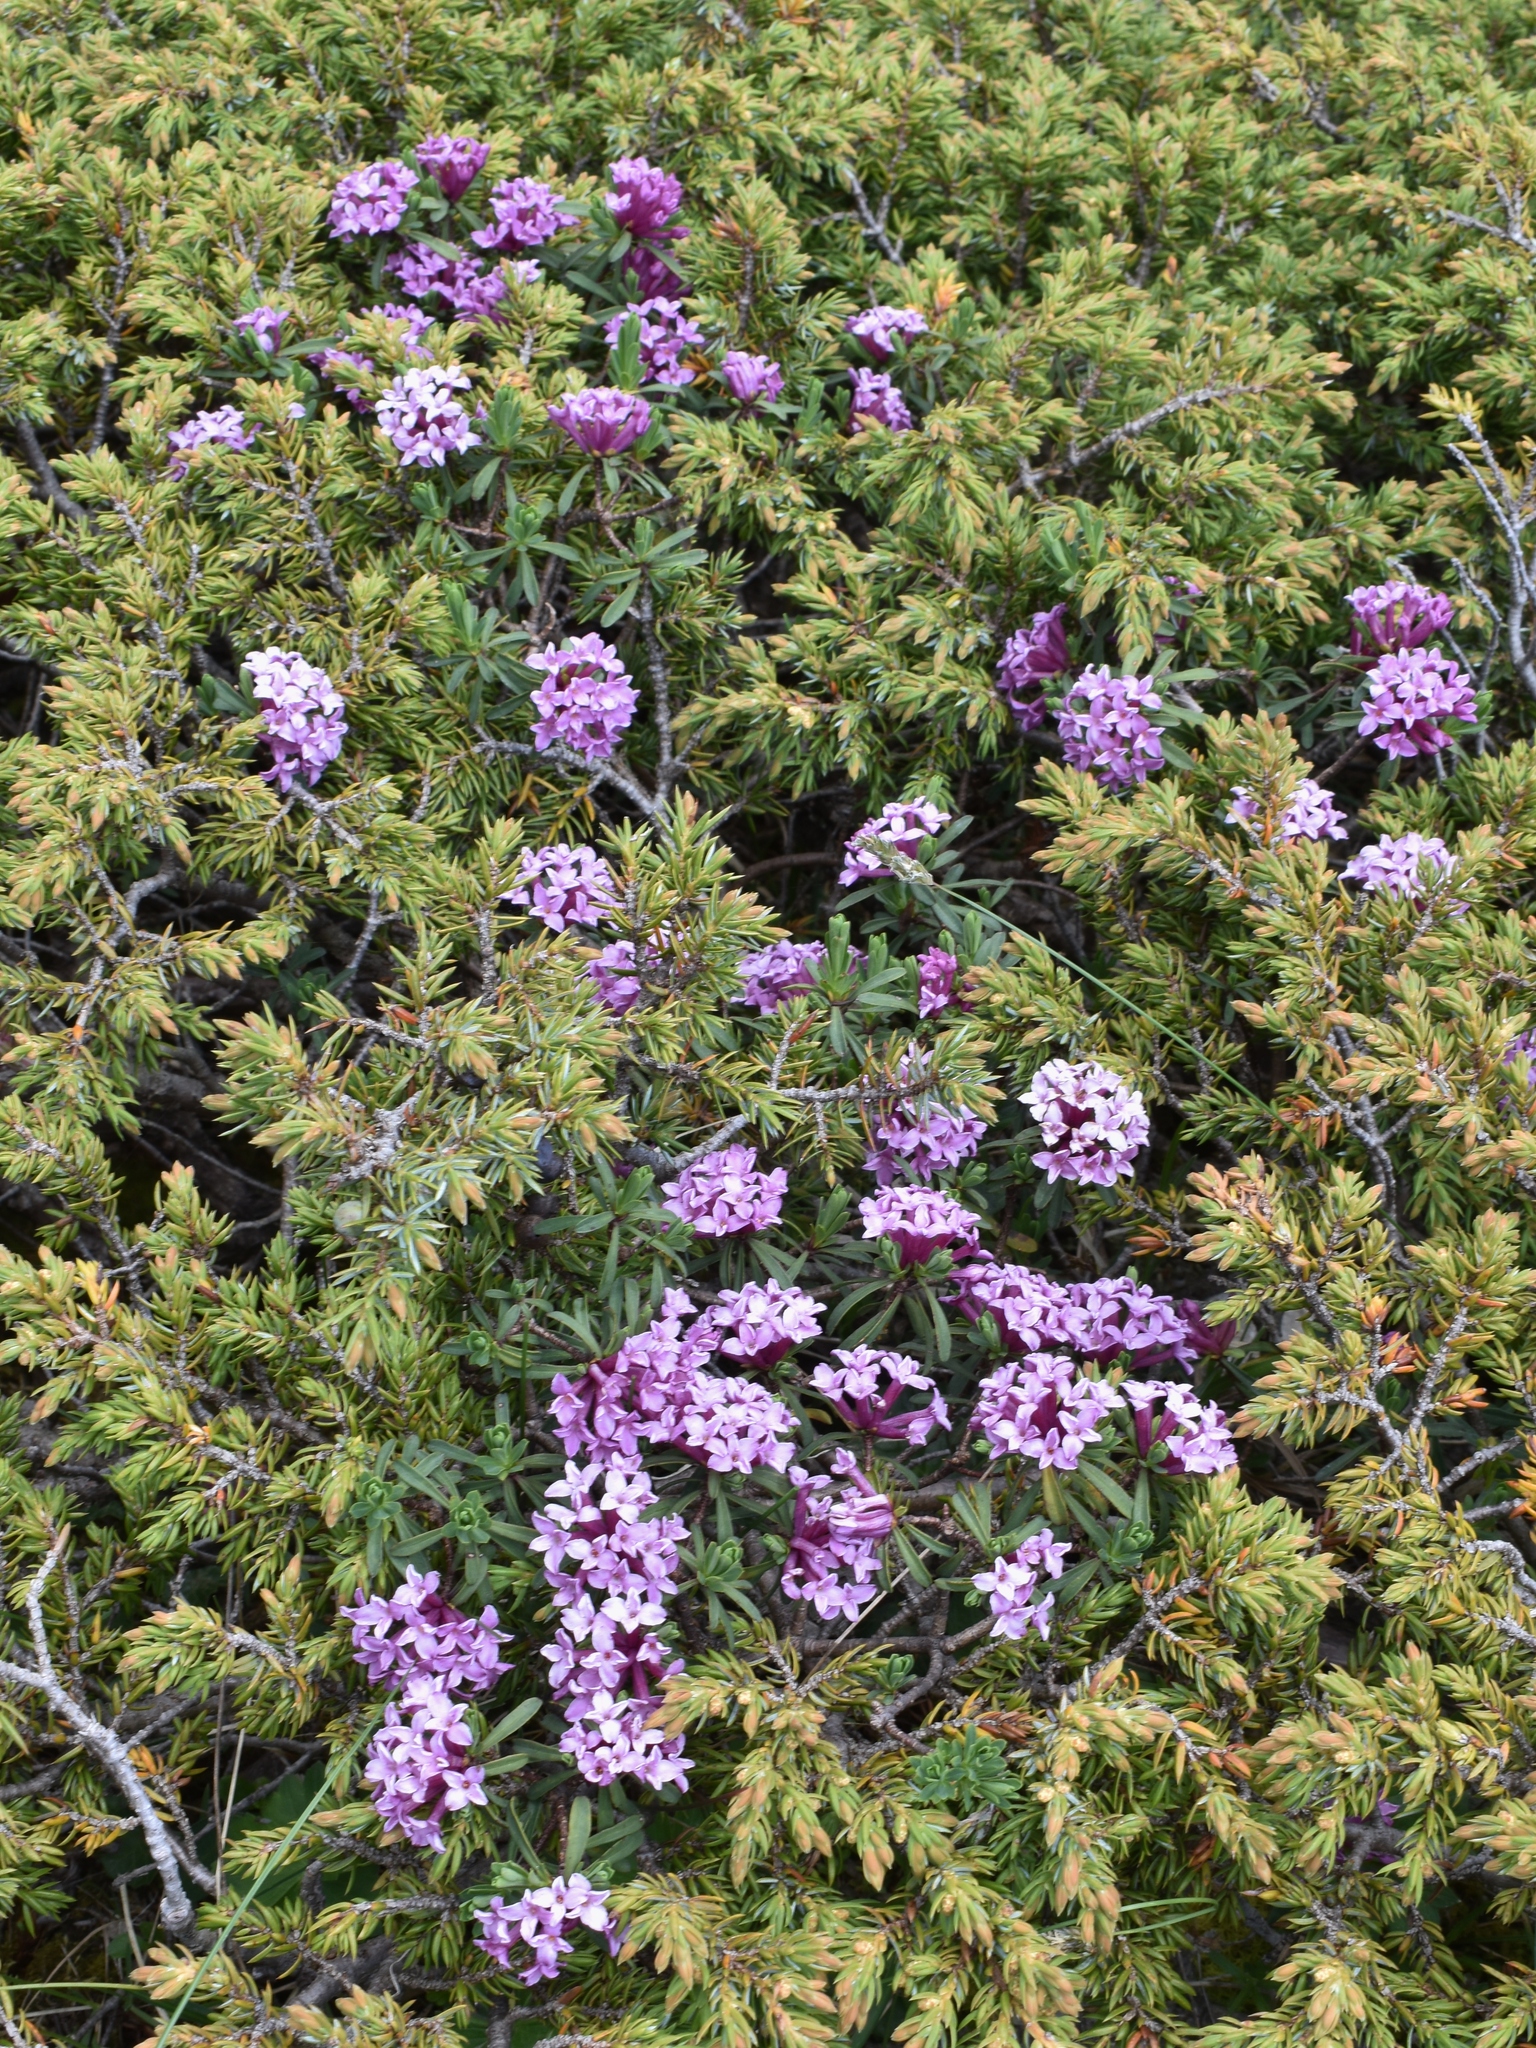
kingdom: Plantae
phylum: Tracheophyta
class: Magnoliopsida
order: Malvales
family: Thymelaeaceae
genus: Daphne
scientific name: Daphne striata
